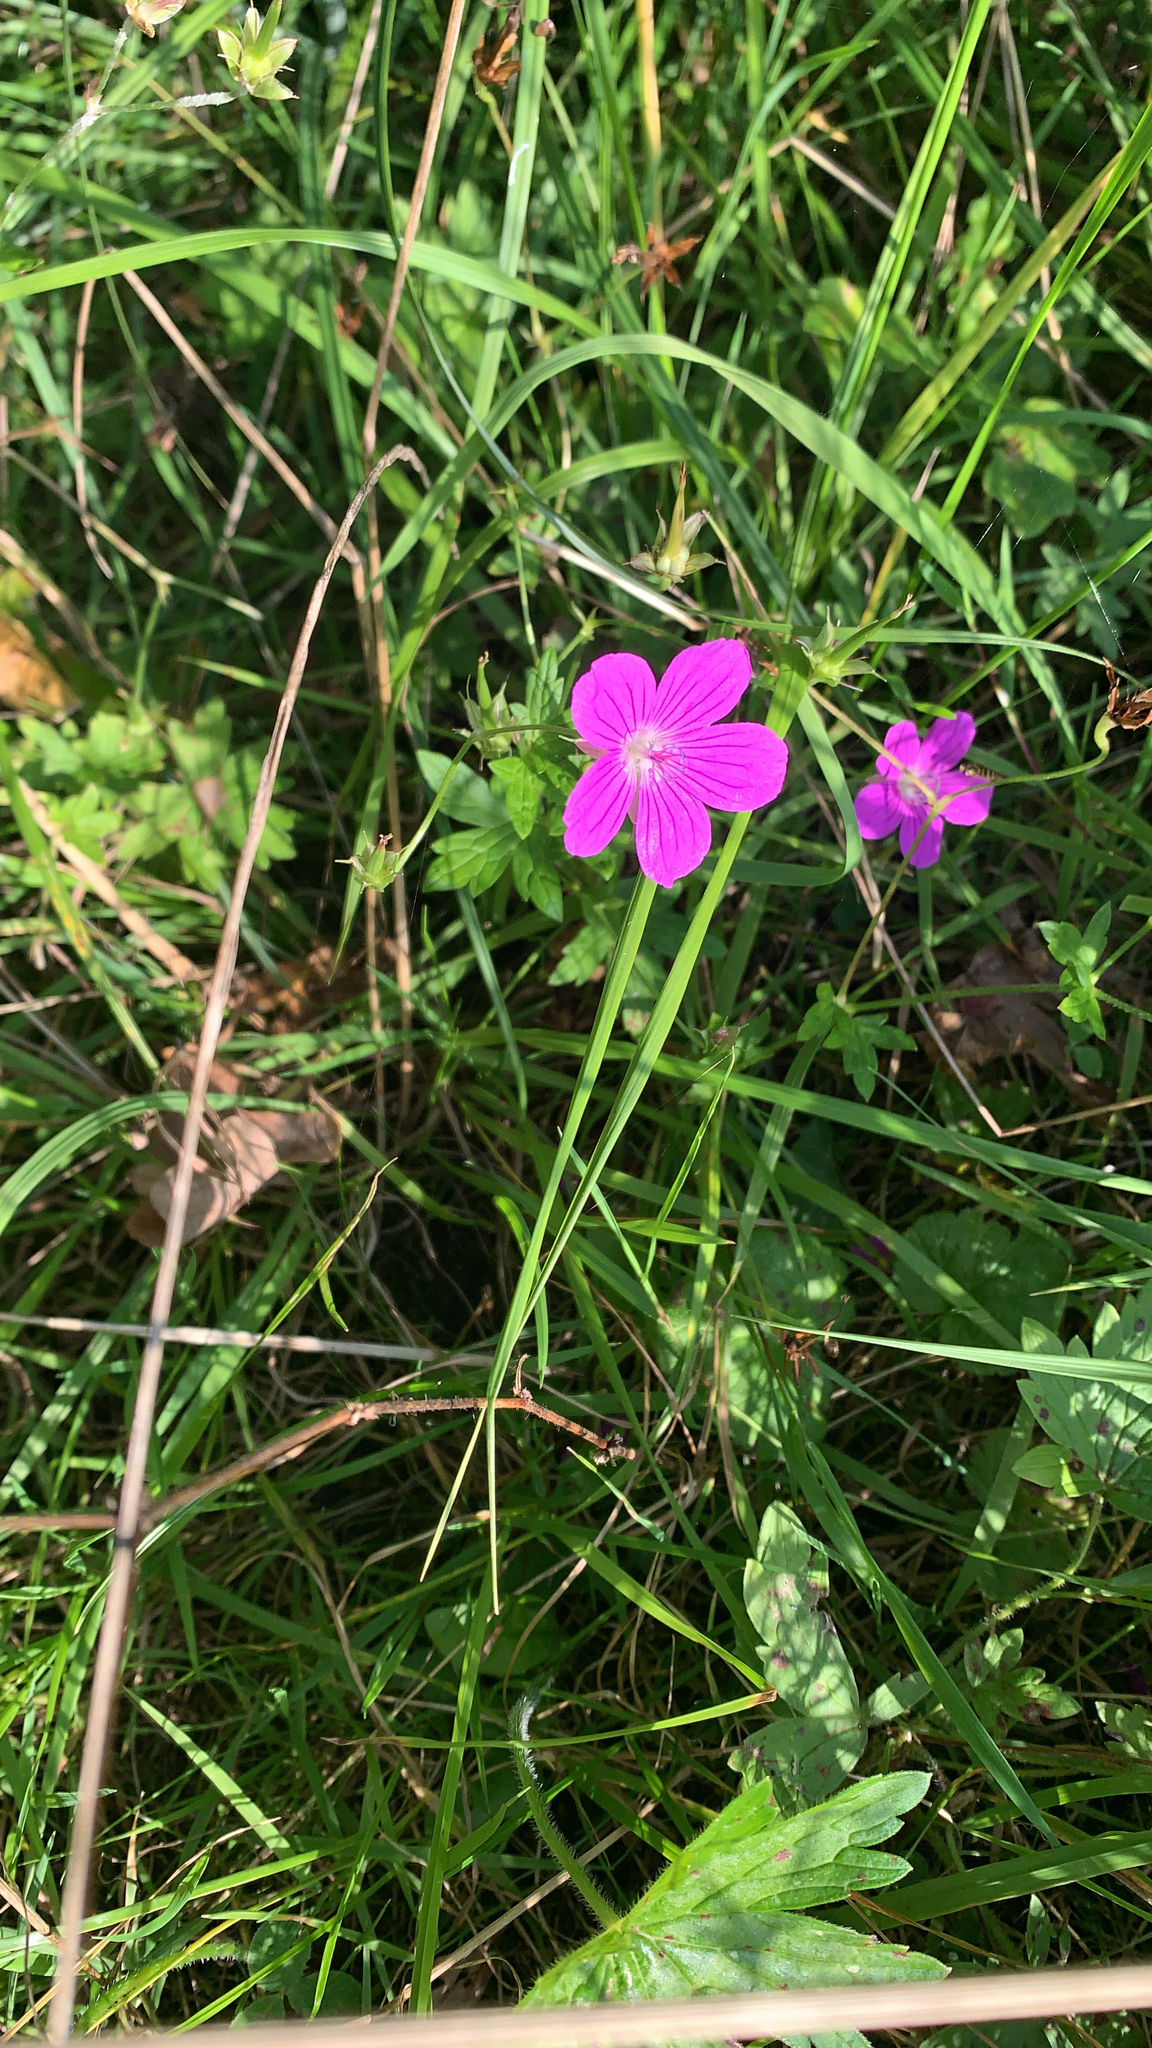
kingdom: Plantae
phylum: Tracheophyta
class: Magnoliopsida
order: Geraniales
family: Geraniaceae
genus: Geranium
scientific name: Geranium palustre
